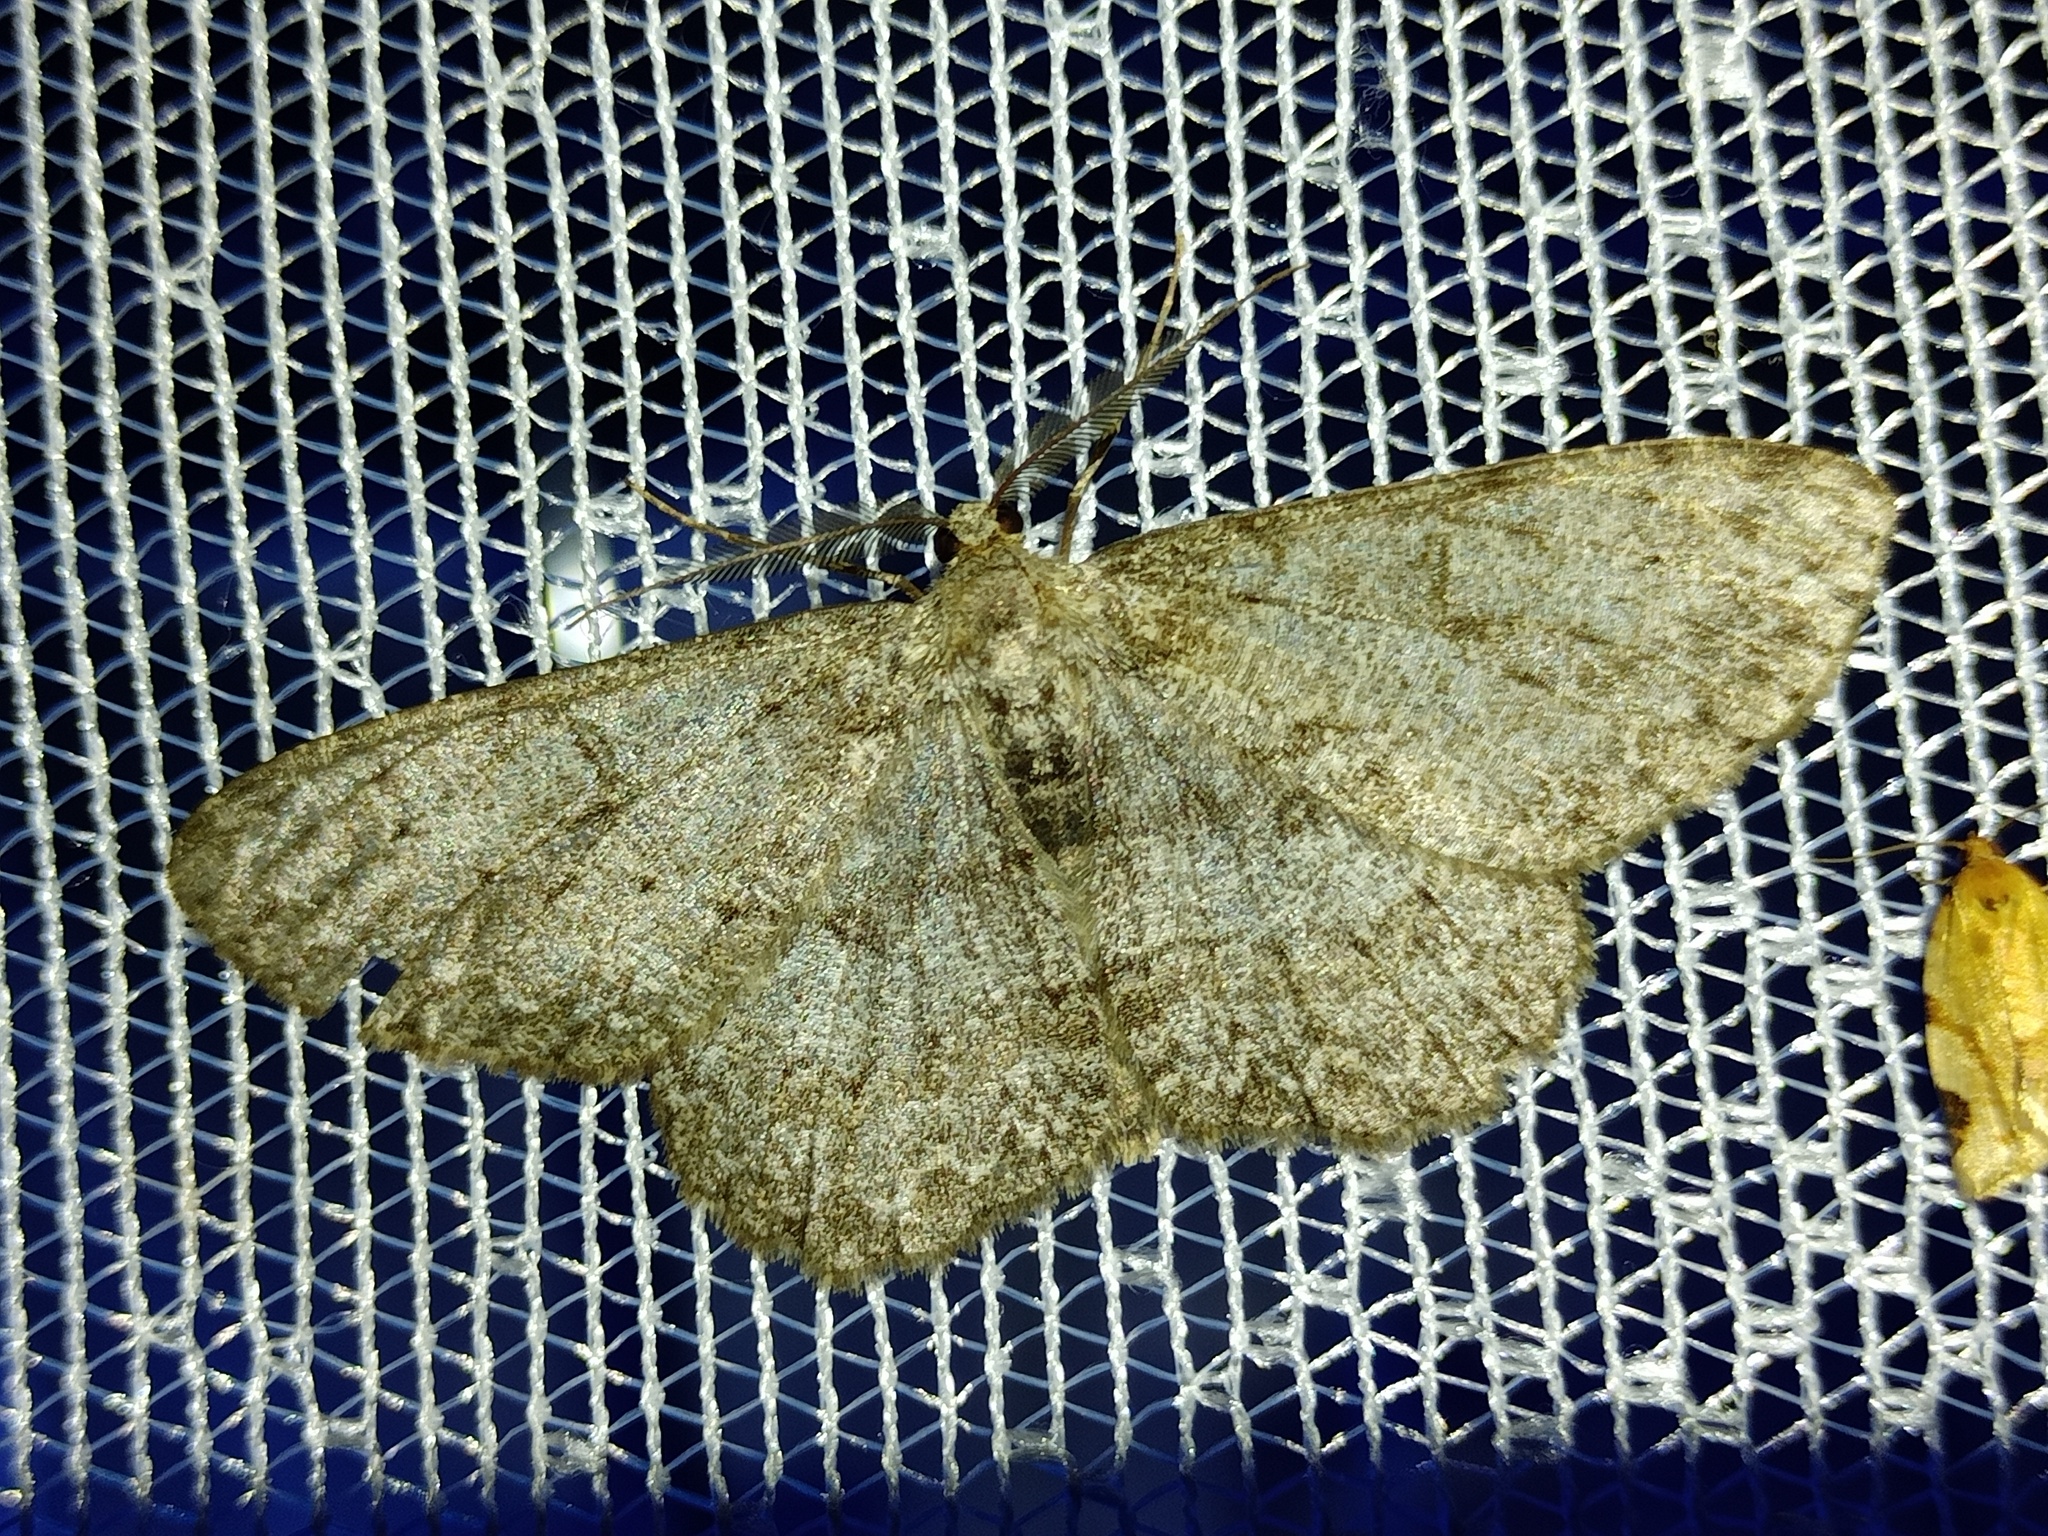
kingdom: Animalia
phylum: Arthropoda
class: Insecta
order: Lepidoptera
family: Geometridae
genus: Hypomecis
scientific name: Hypomecis punctinalis
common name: Pale oak beauty
